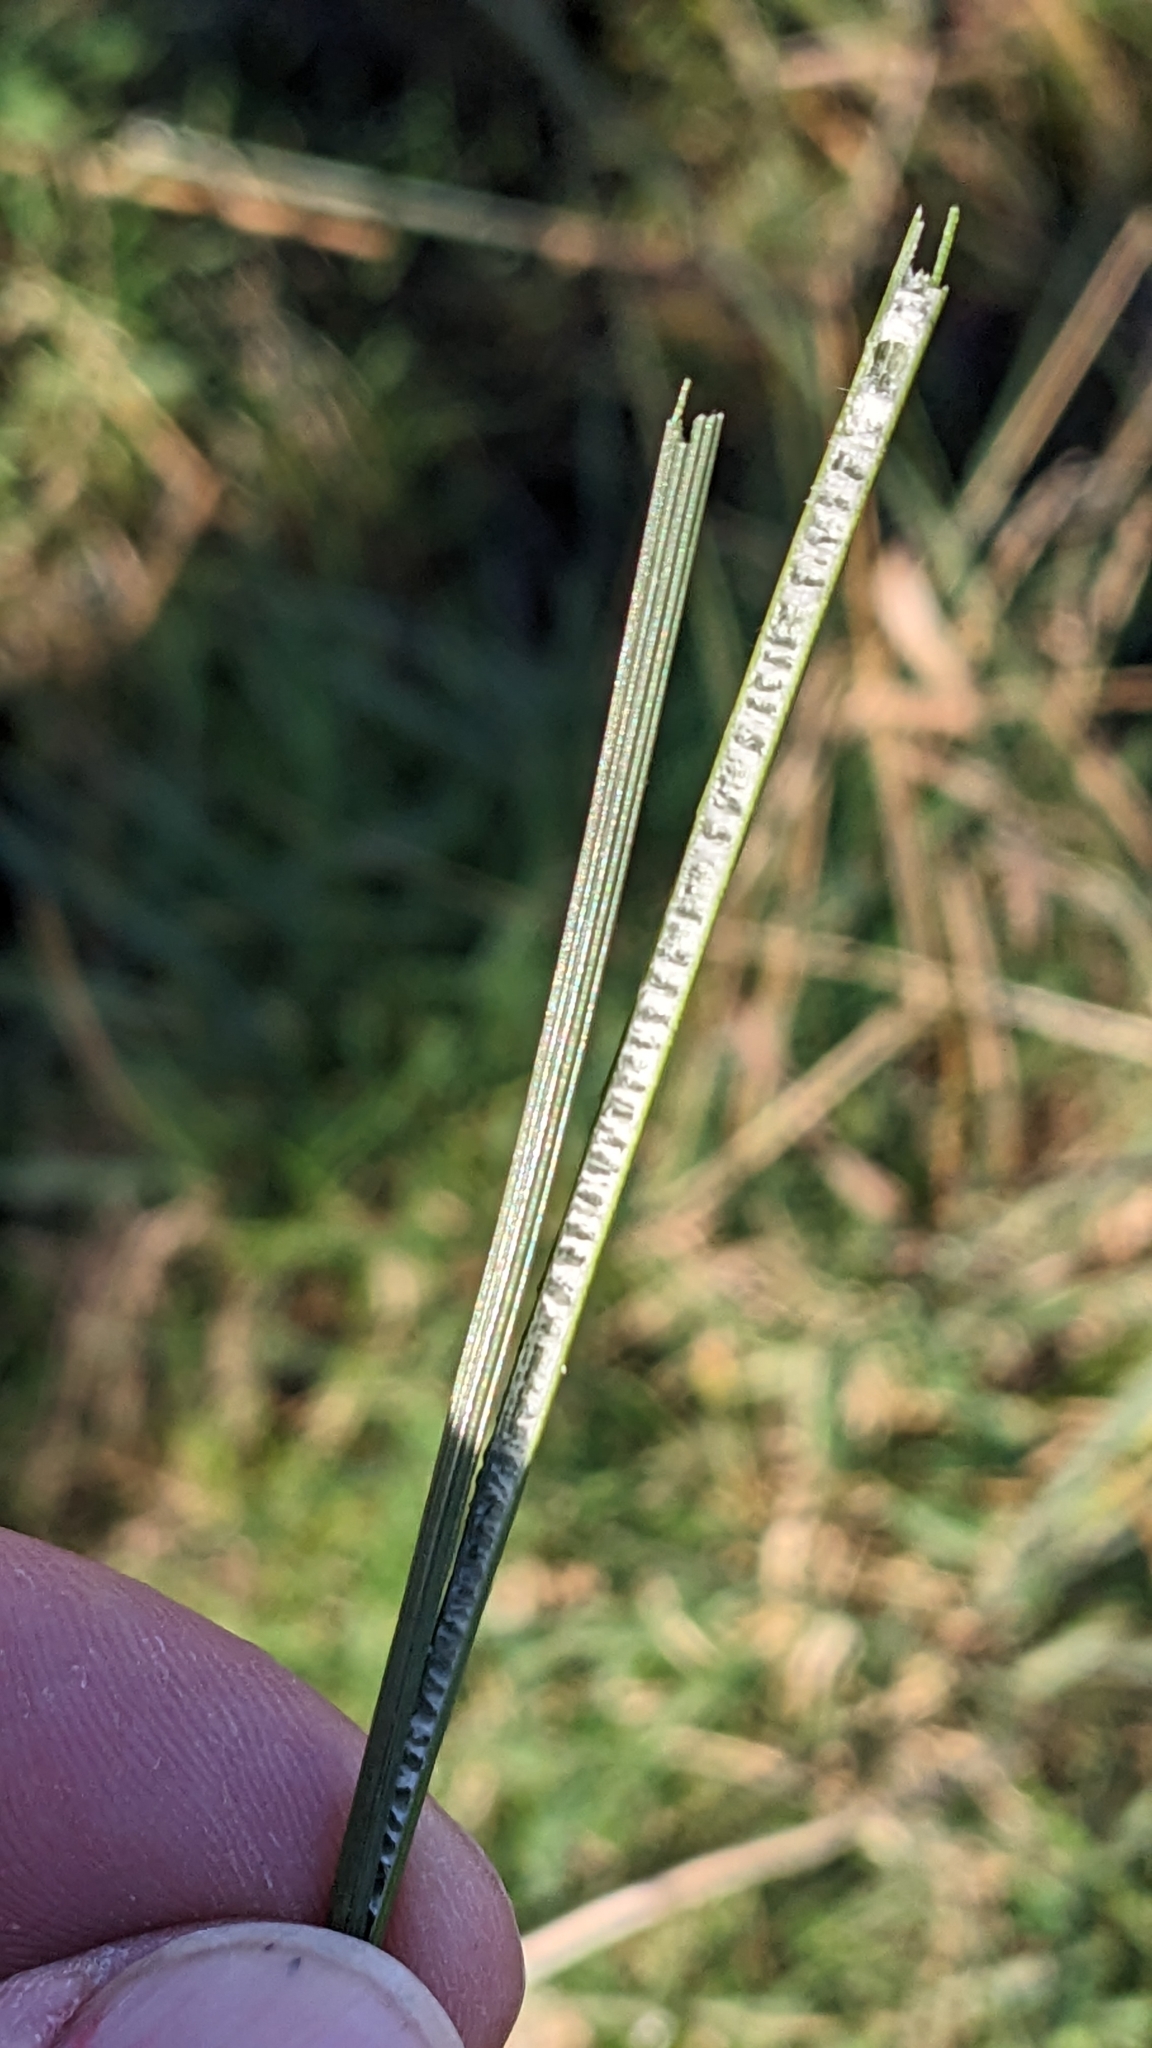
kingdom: Plantae
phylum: Tracheophyta
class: Liliopsida
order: Poales
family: Juncaceae
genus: Juncus
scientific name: Juncus inflexus
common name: Hard rush
